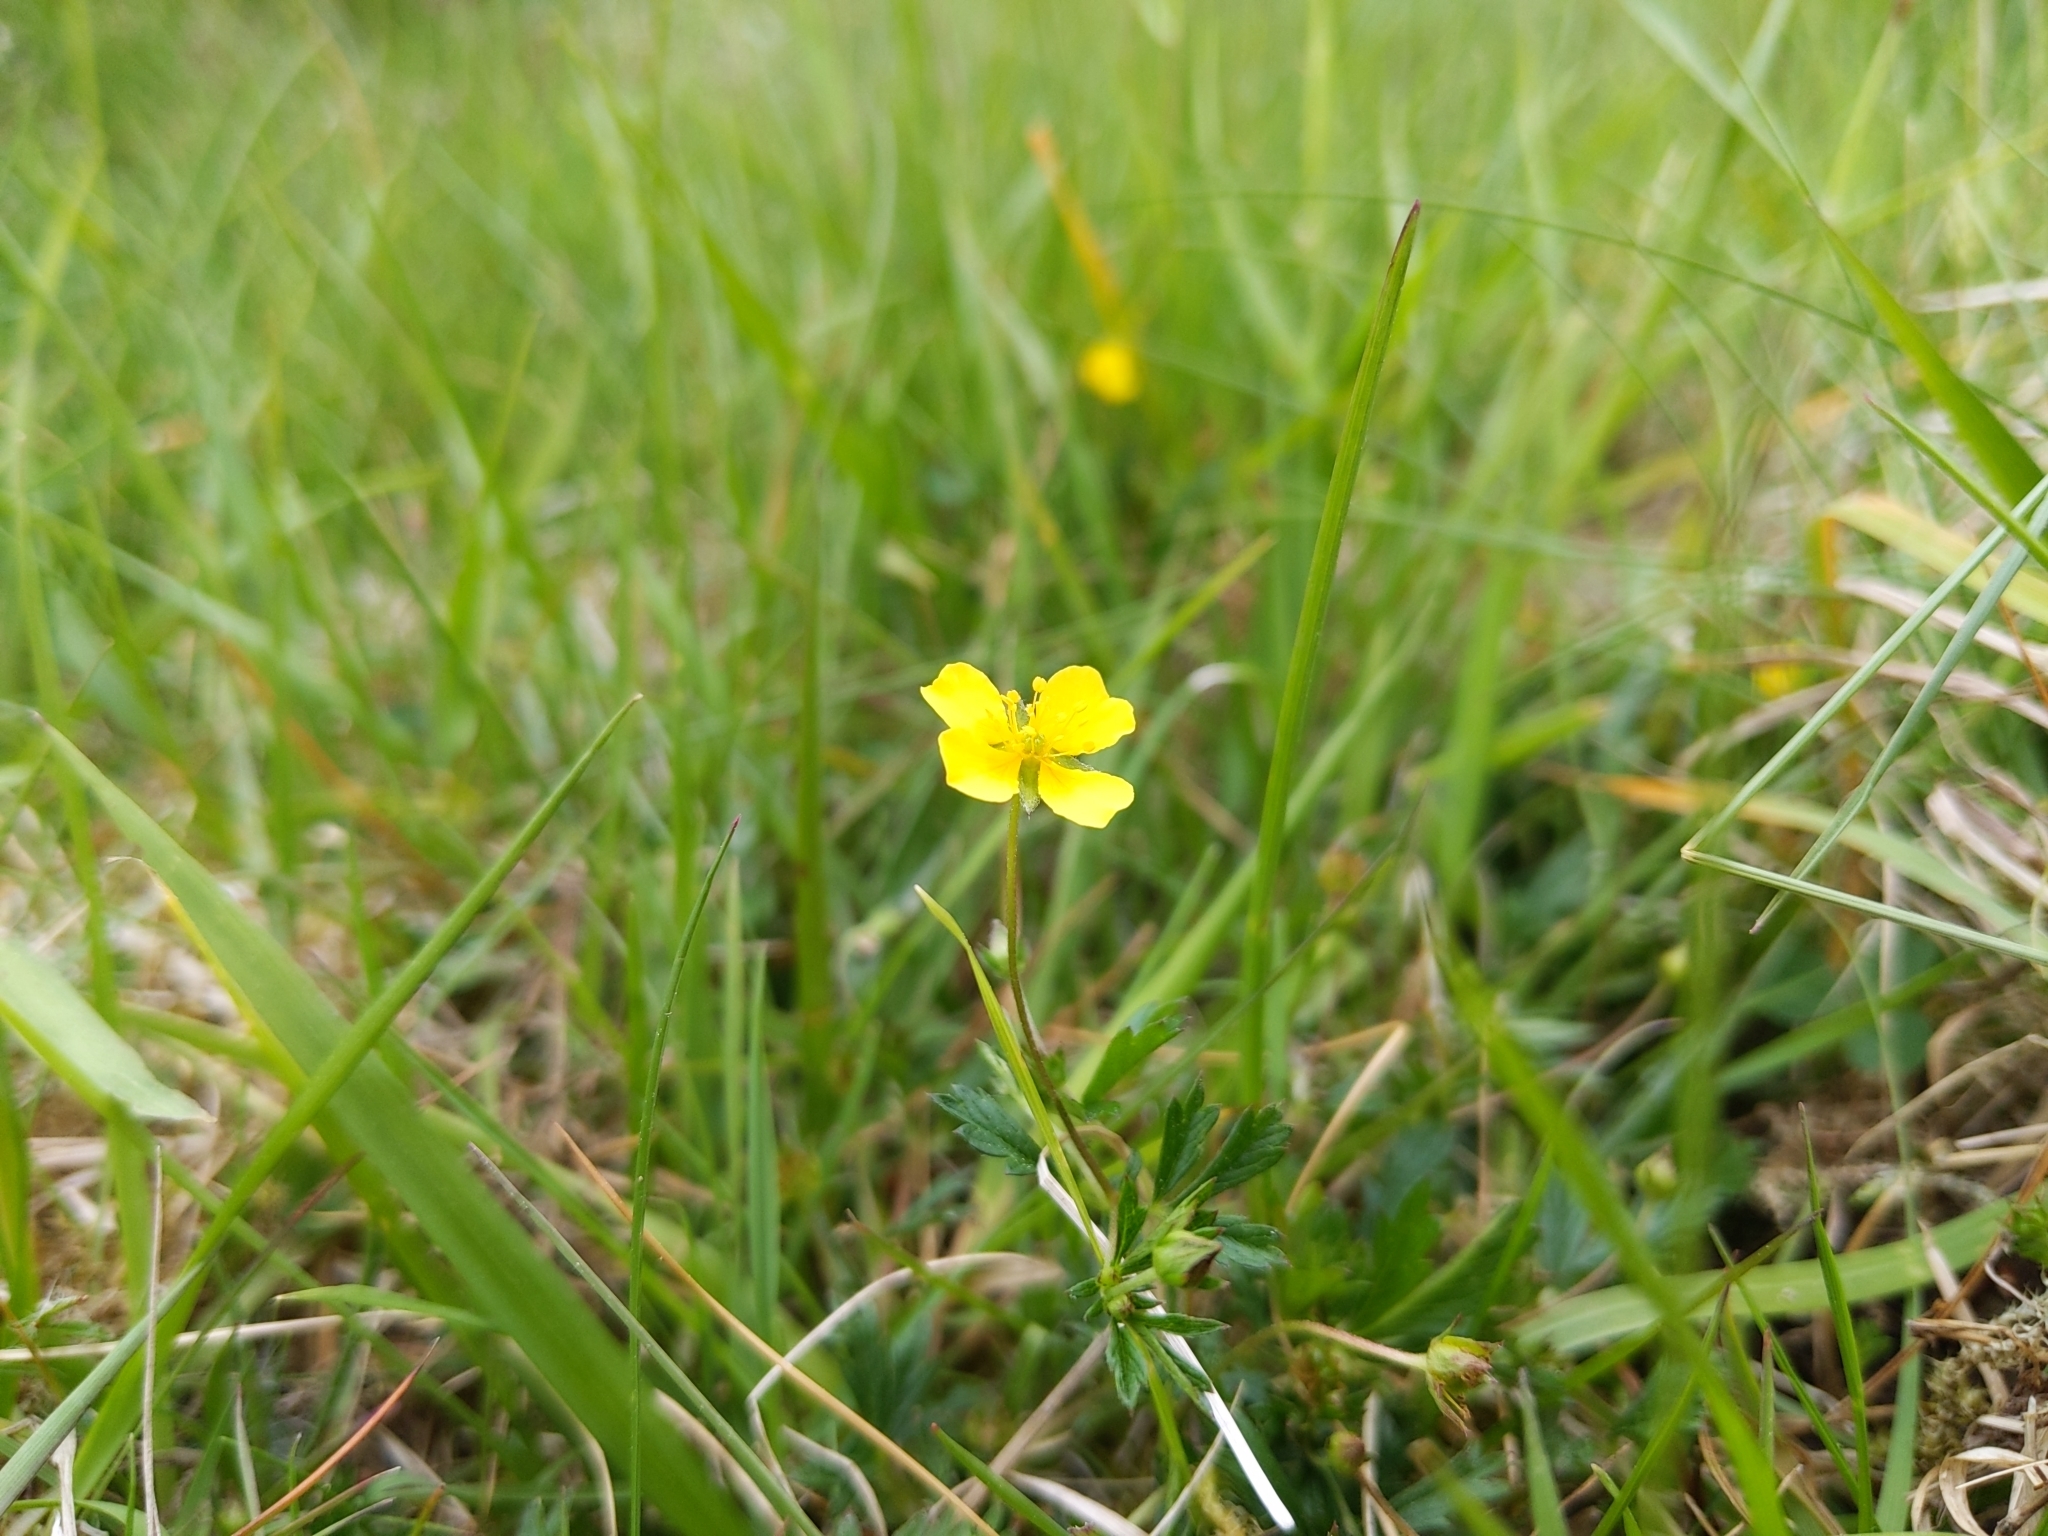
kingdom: Plantae
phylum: Tracheophyta
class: Magnoliopsida
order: Rosales
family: Rosaceae
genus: Potentilla
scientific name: Potentilla erecta
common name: Tormentil
